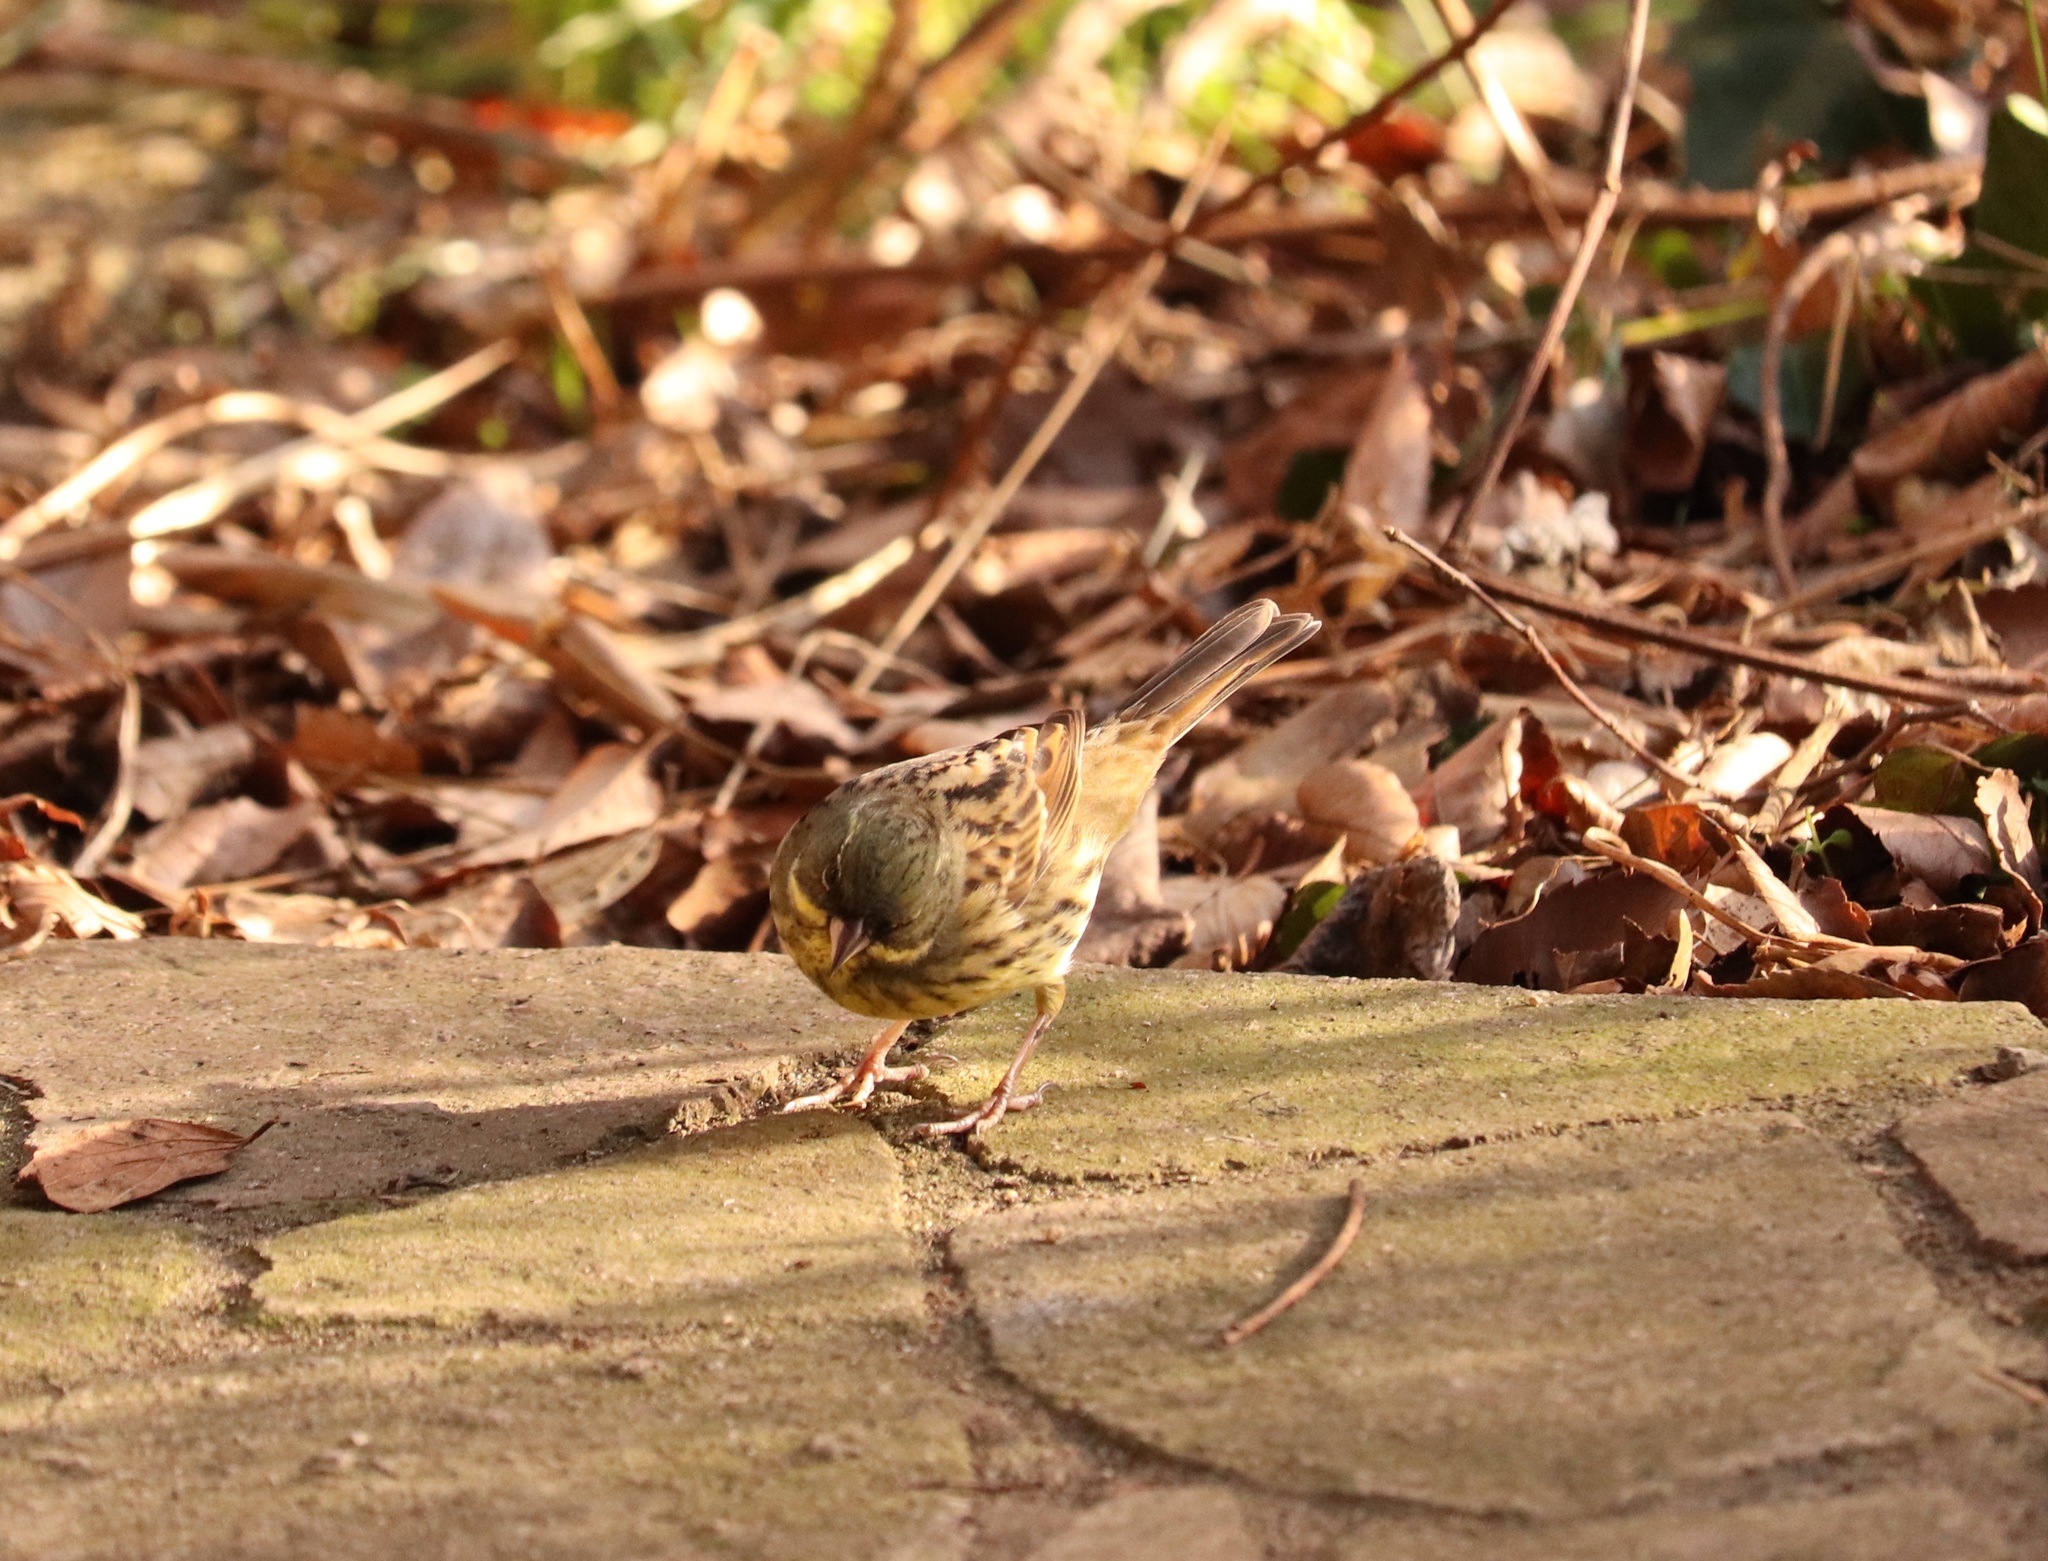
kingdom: Animalia
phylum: Chordata
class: Aves
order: Passeriformes
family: Emberizidae
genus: Emberiza
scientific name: Emberiza personata
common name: Masked bunting
